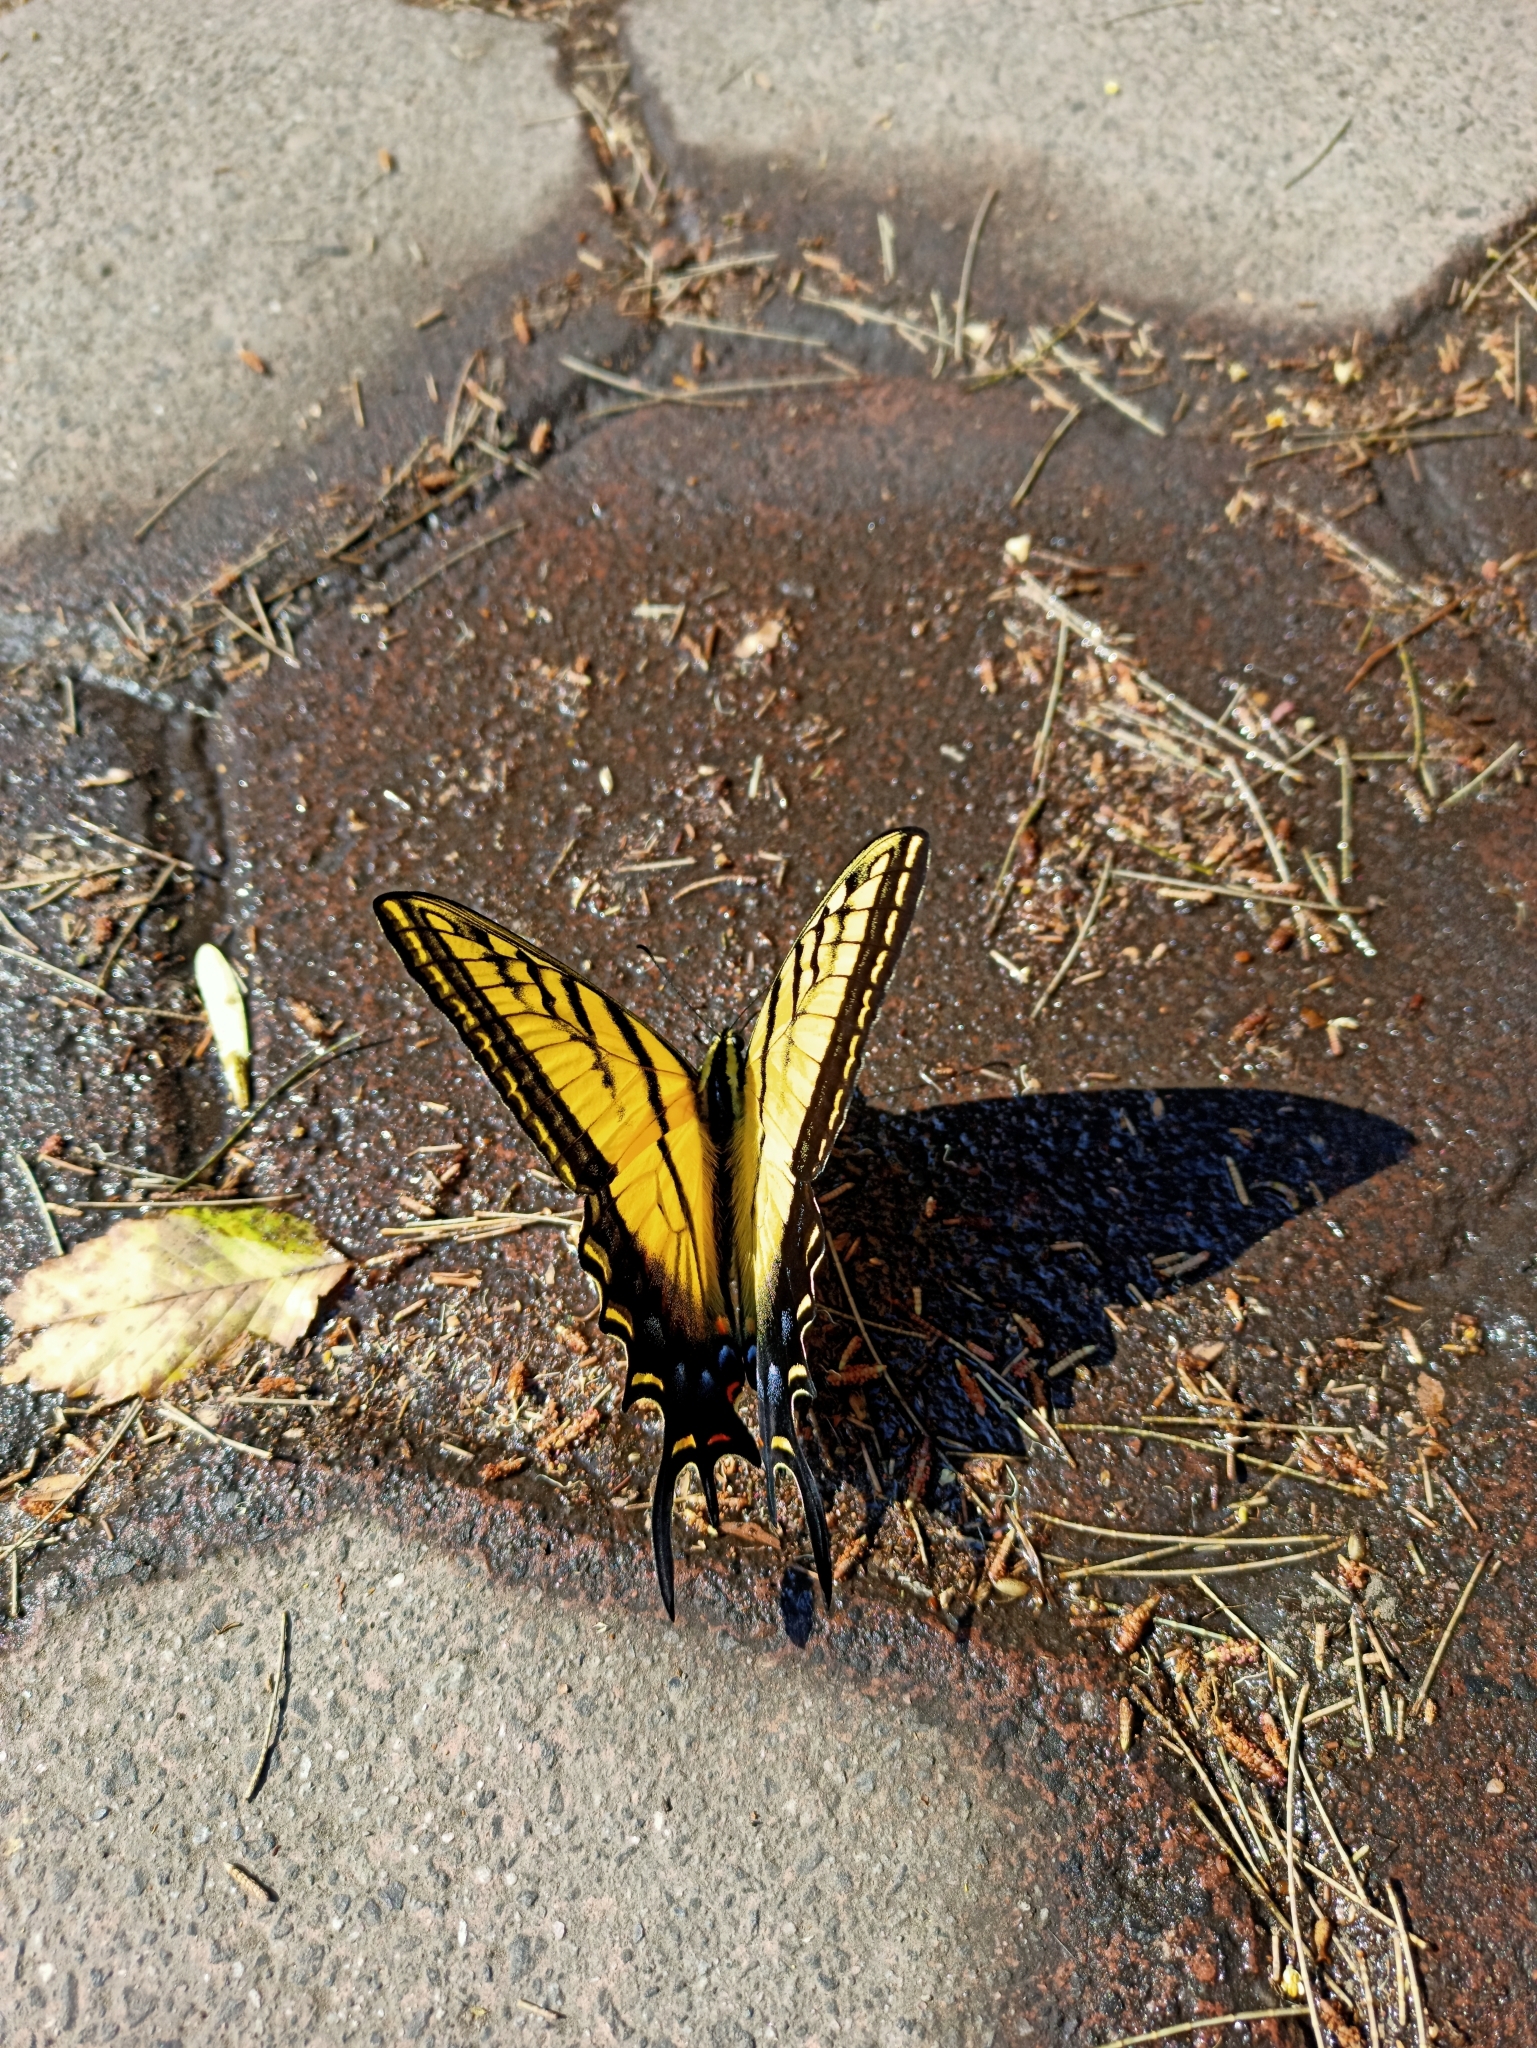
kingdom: Animalia
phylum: Arthropoda
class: Insecta
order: Lepidoptera
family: Papilionidae
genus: Papilio
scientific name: Papilio multicaudata
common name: Two-tailed tiger swallowtail
